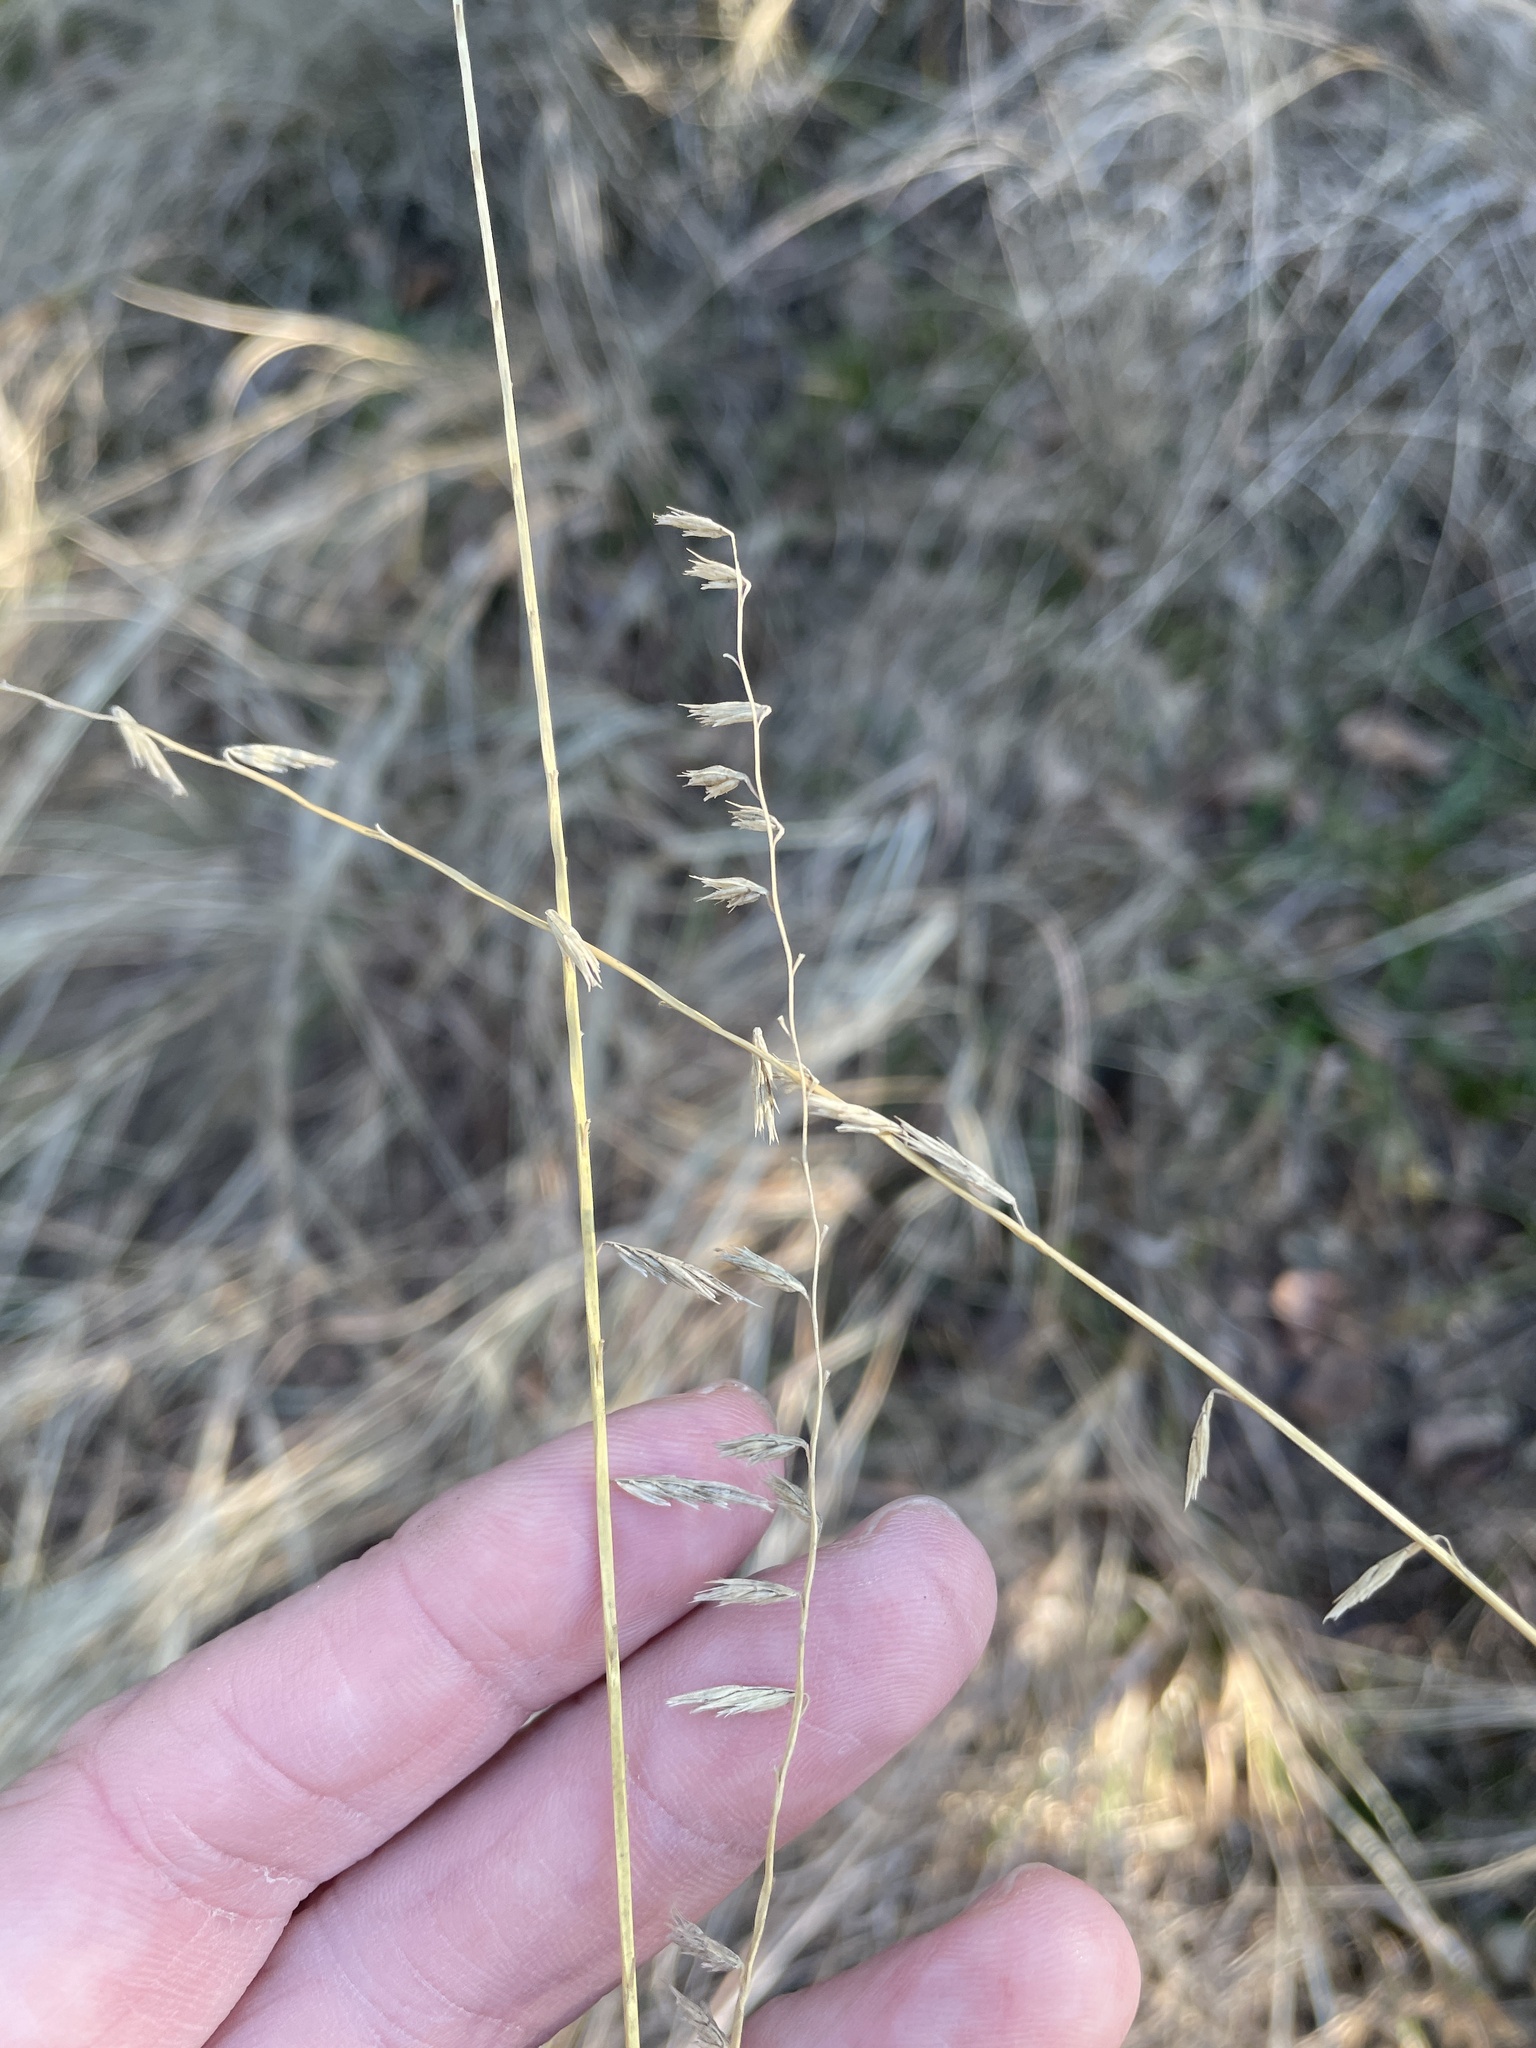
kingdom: Plantae
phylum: Tracheophyta
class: Liliopsida
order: Poales
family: Poaceae
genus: Bouteloua
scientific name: Bouteloua curtipendula
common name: Side-oats grama
